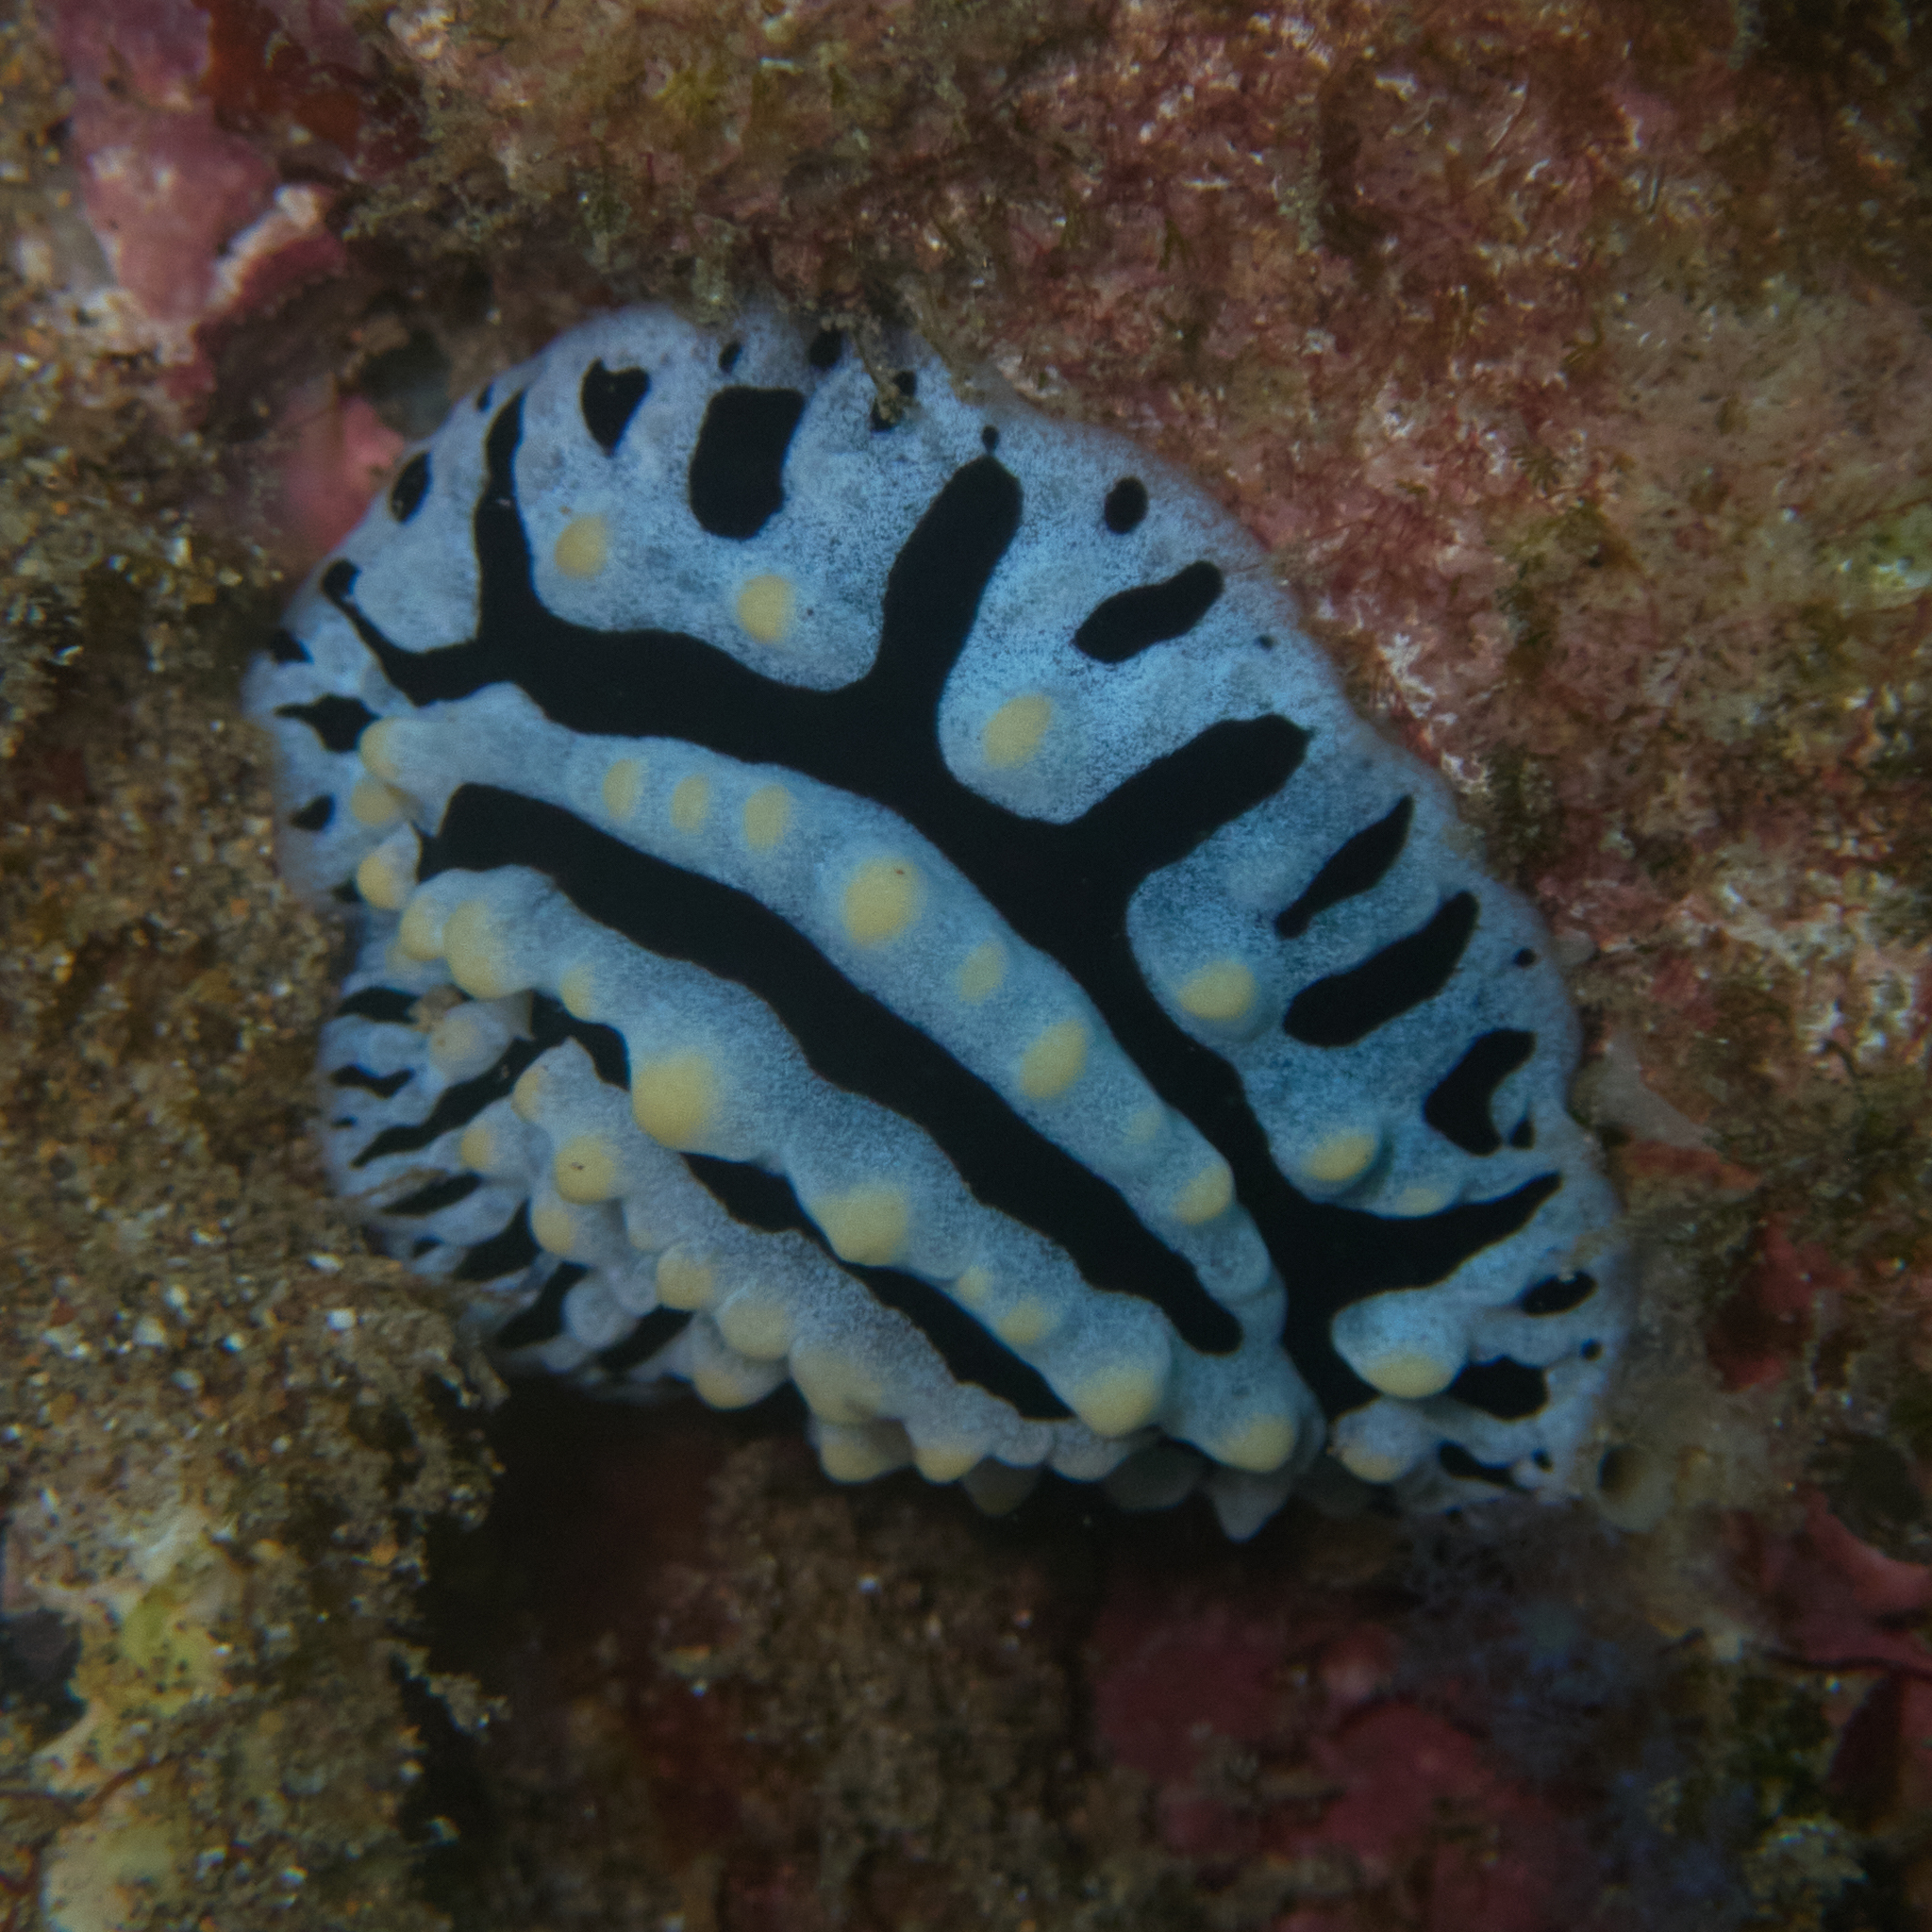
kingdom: Animalia
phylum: Mollusca
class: Gastropoda
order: Nudibranchia
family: Phyllidiidae
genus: Phyllidia
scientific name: Phyllidia varicosa
